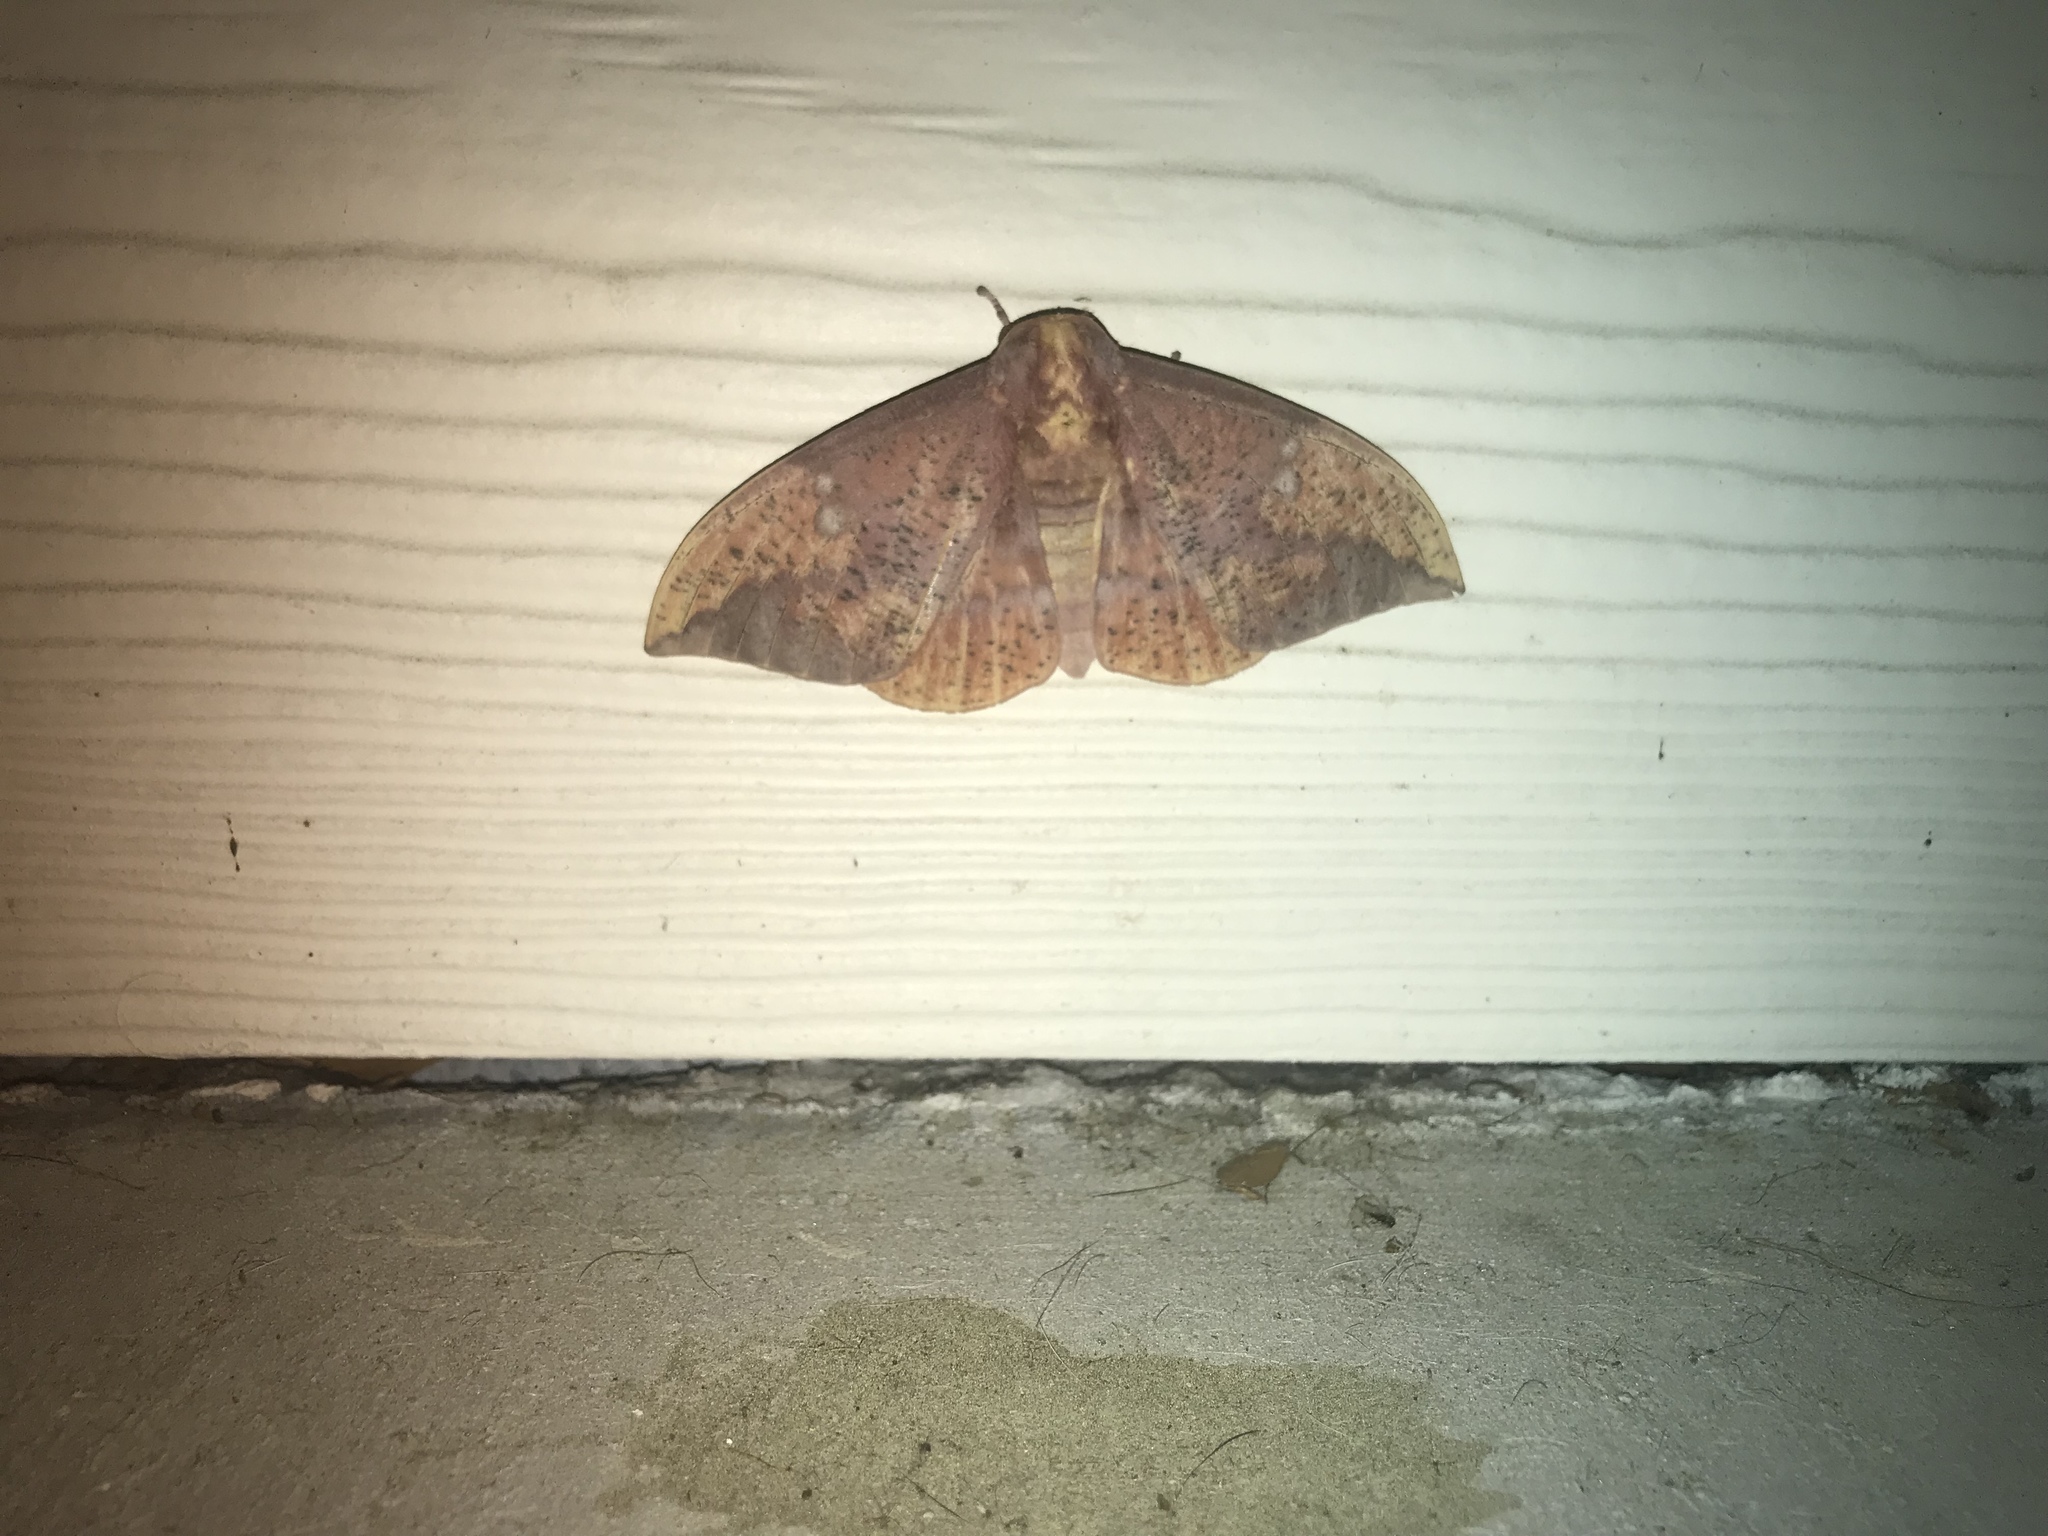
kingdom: Animalia
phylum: Arthropoda
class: Insecta
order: Lepidoptera
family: Saturniidae
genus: Eacles
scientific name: Eacles imperialis
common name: Imperial moth
